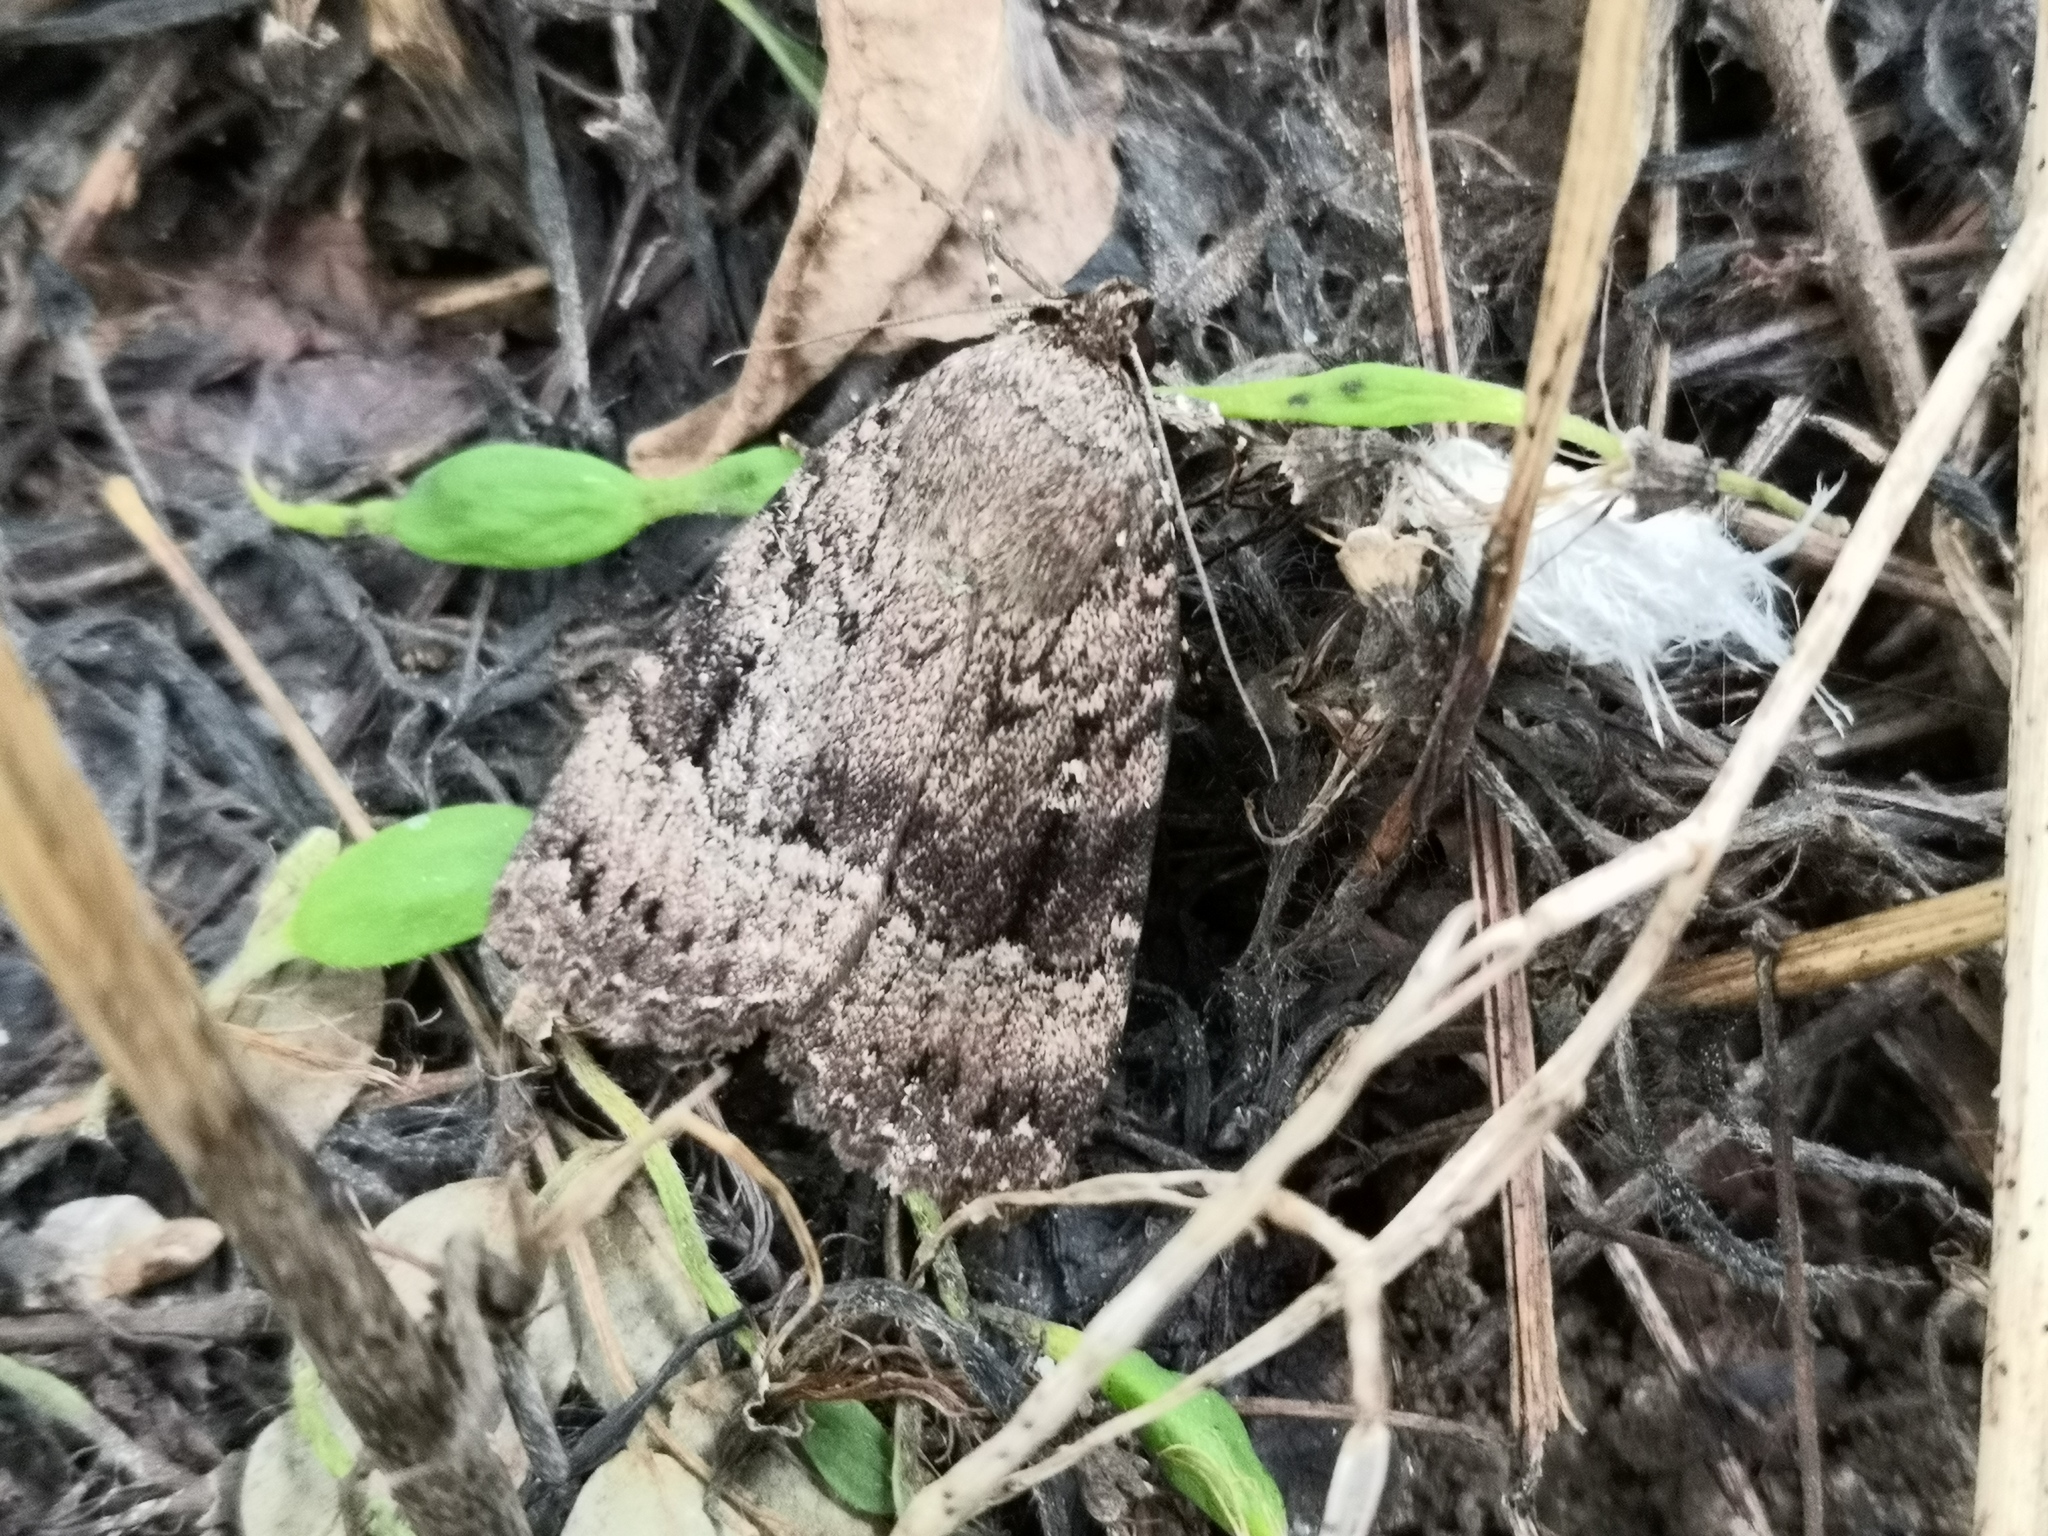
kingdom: Animalia
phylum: Arthropoda
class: Insecta
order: Lepidoptera
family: Noctuidae
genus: Amphipyra
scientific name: Amphipyra pyramidea
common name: Copper underwing
